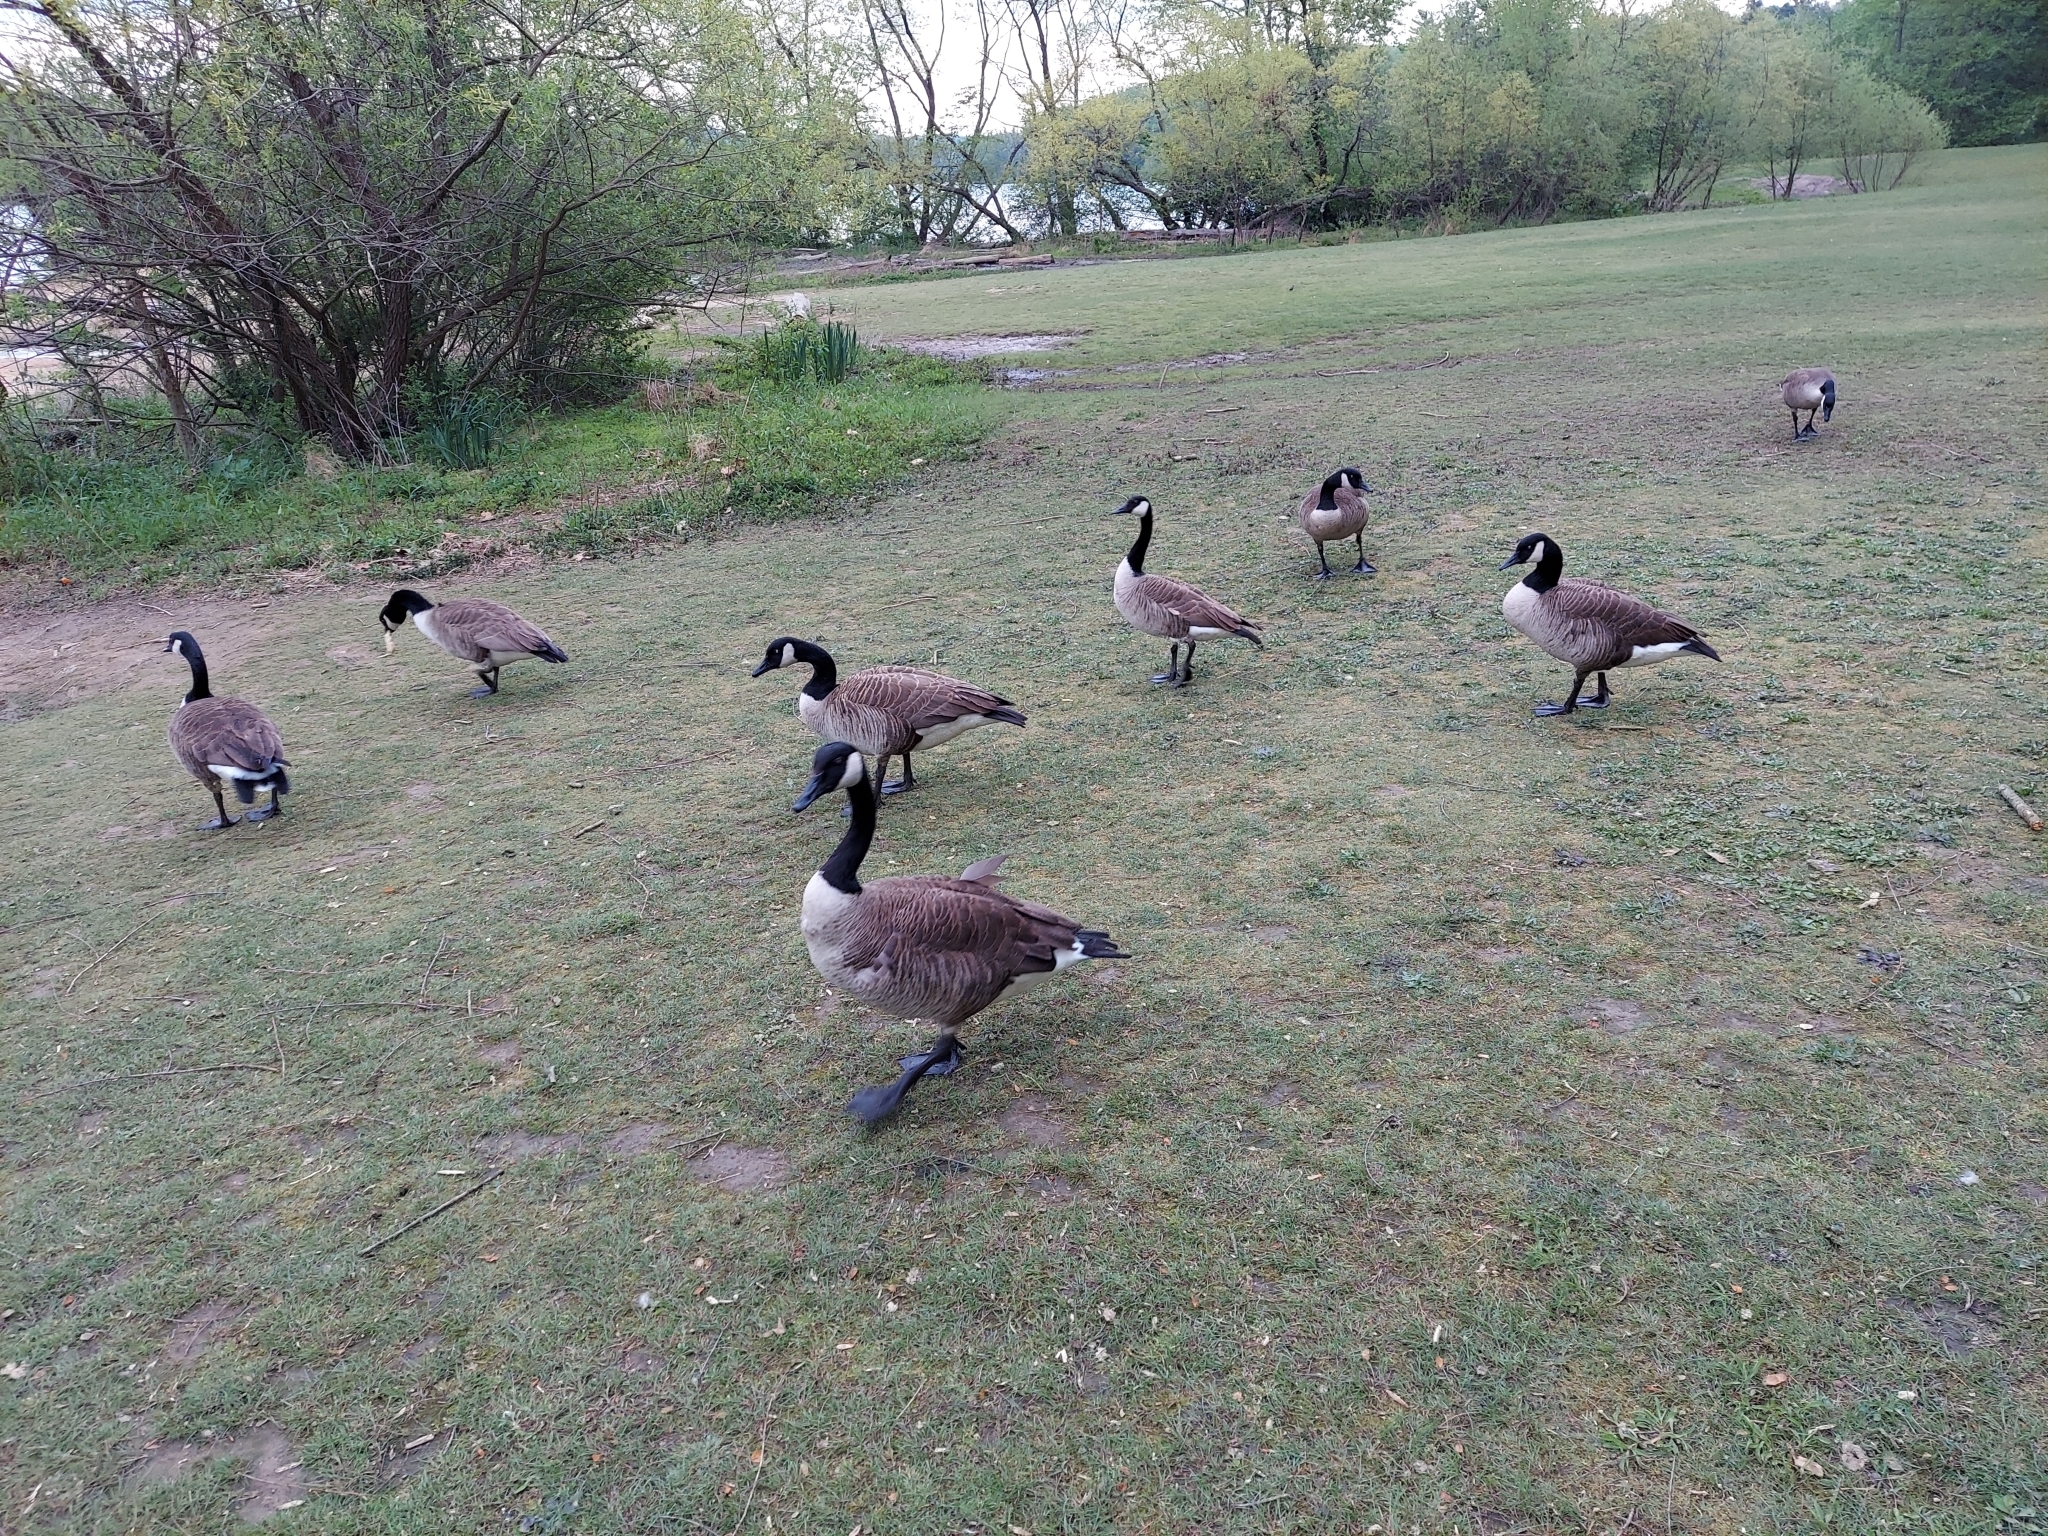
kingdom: Animalia
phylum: Chordata
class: Aves
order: Anseriformes
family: Anatidae
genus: Branta
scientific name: Branta canadensis
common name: Canada goose
